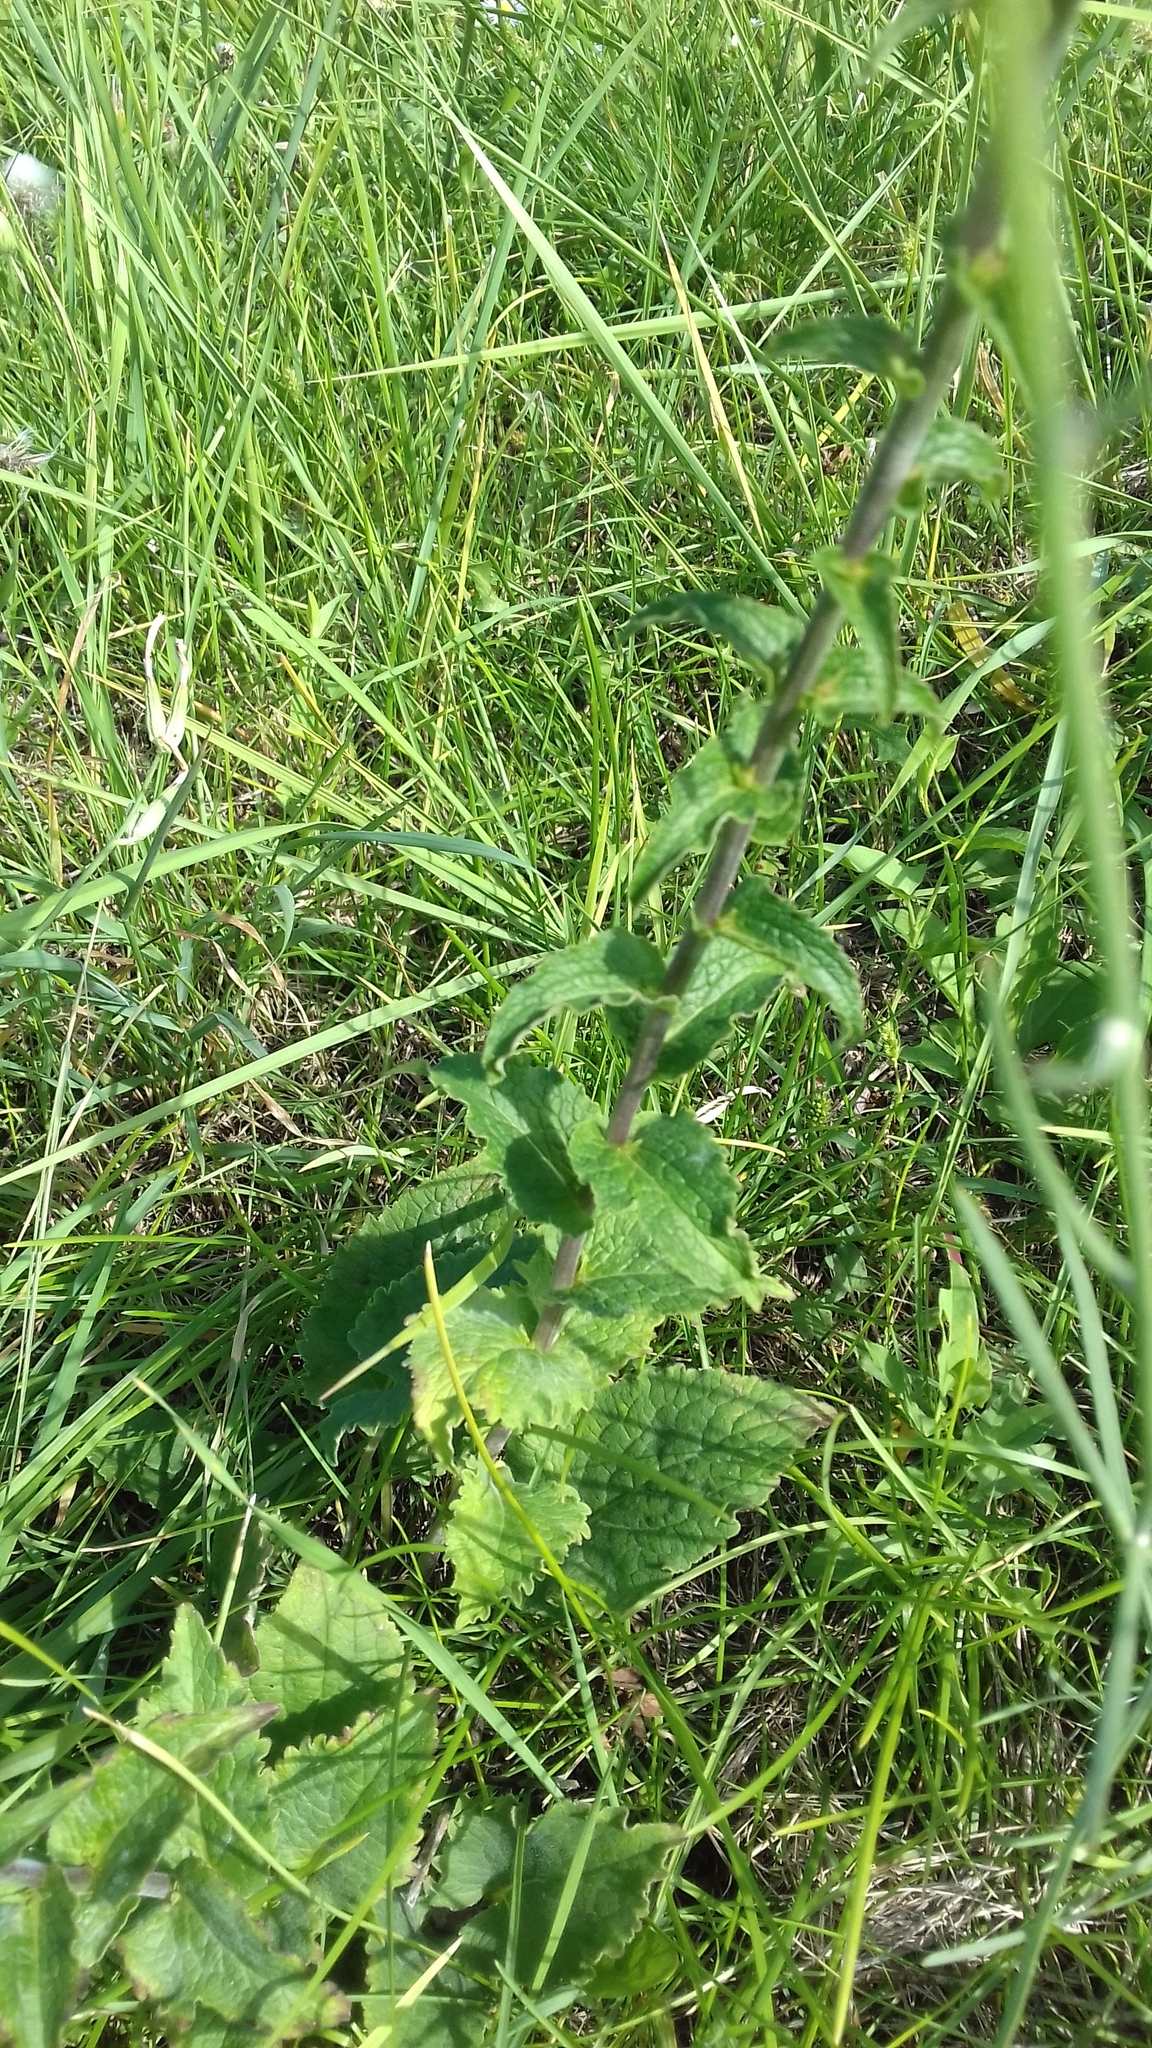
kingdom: Plantae
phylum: Tracheophyta
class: Magnoliopsida
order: Asterales
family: Campanulaceae
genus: Campanula
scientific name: Campanula bononiensis
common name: Pale bellflower
